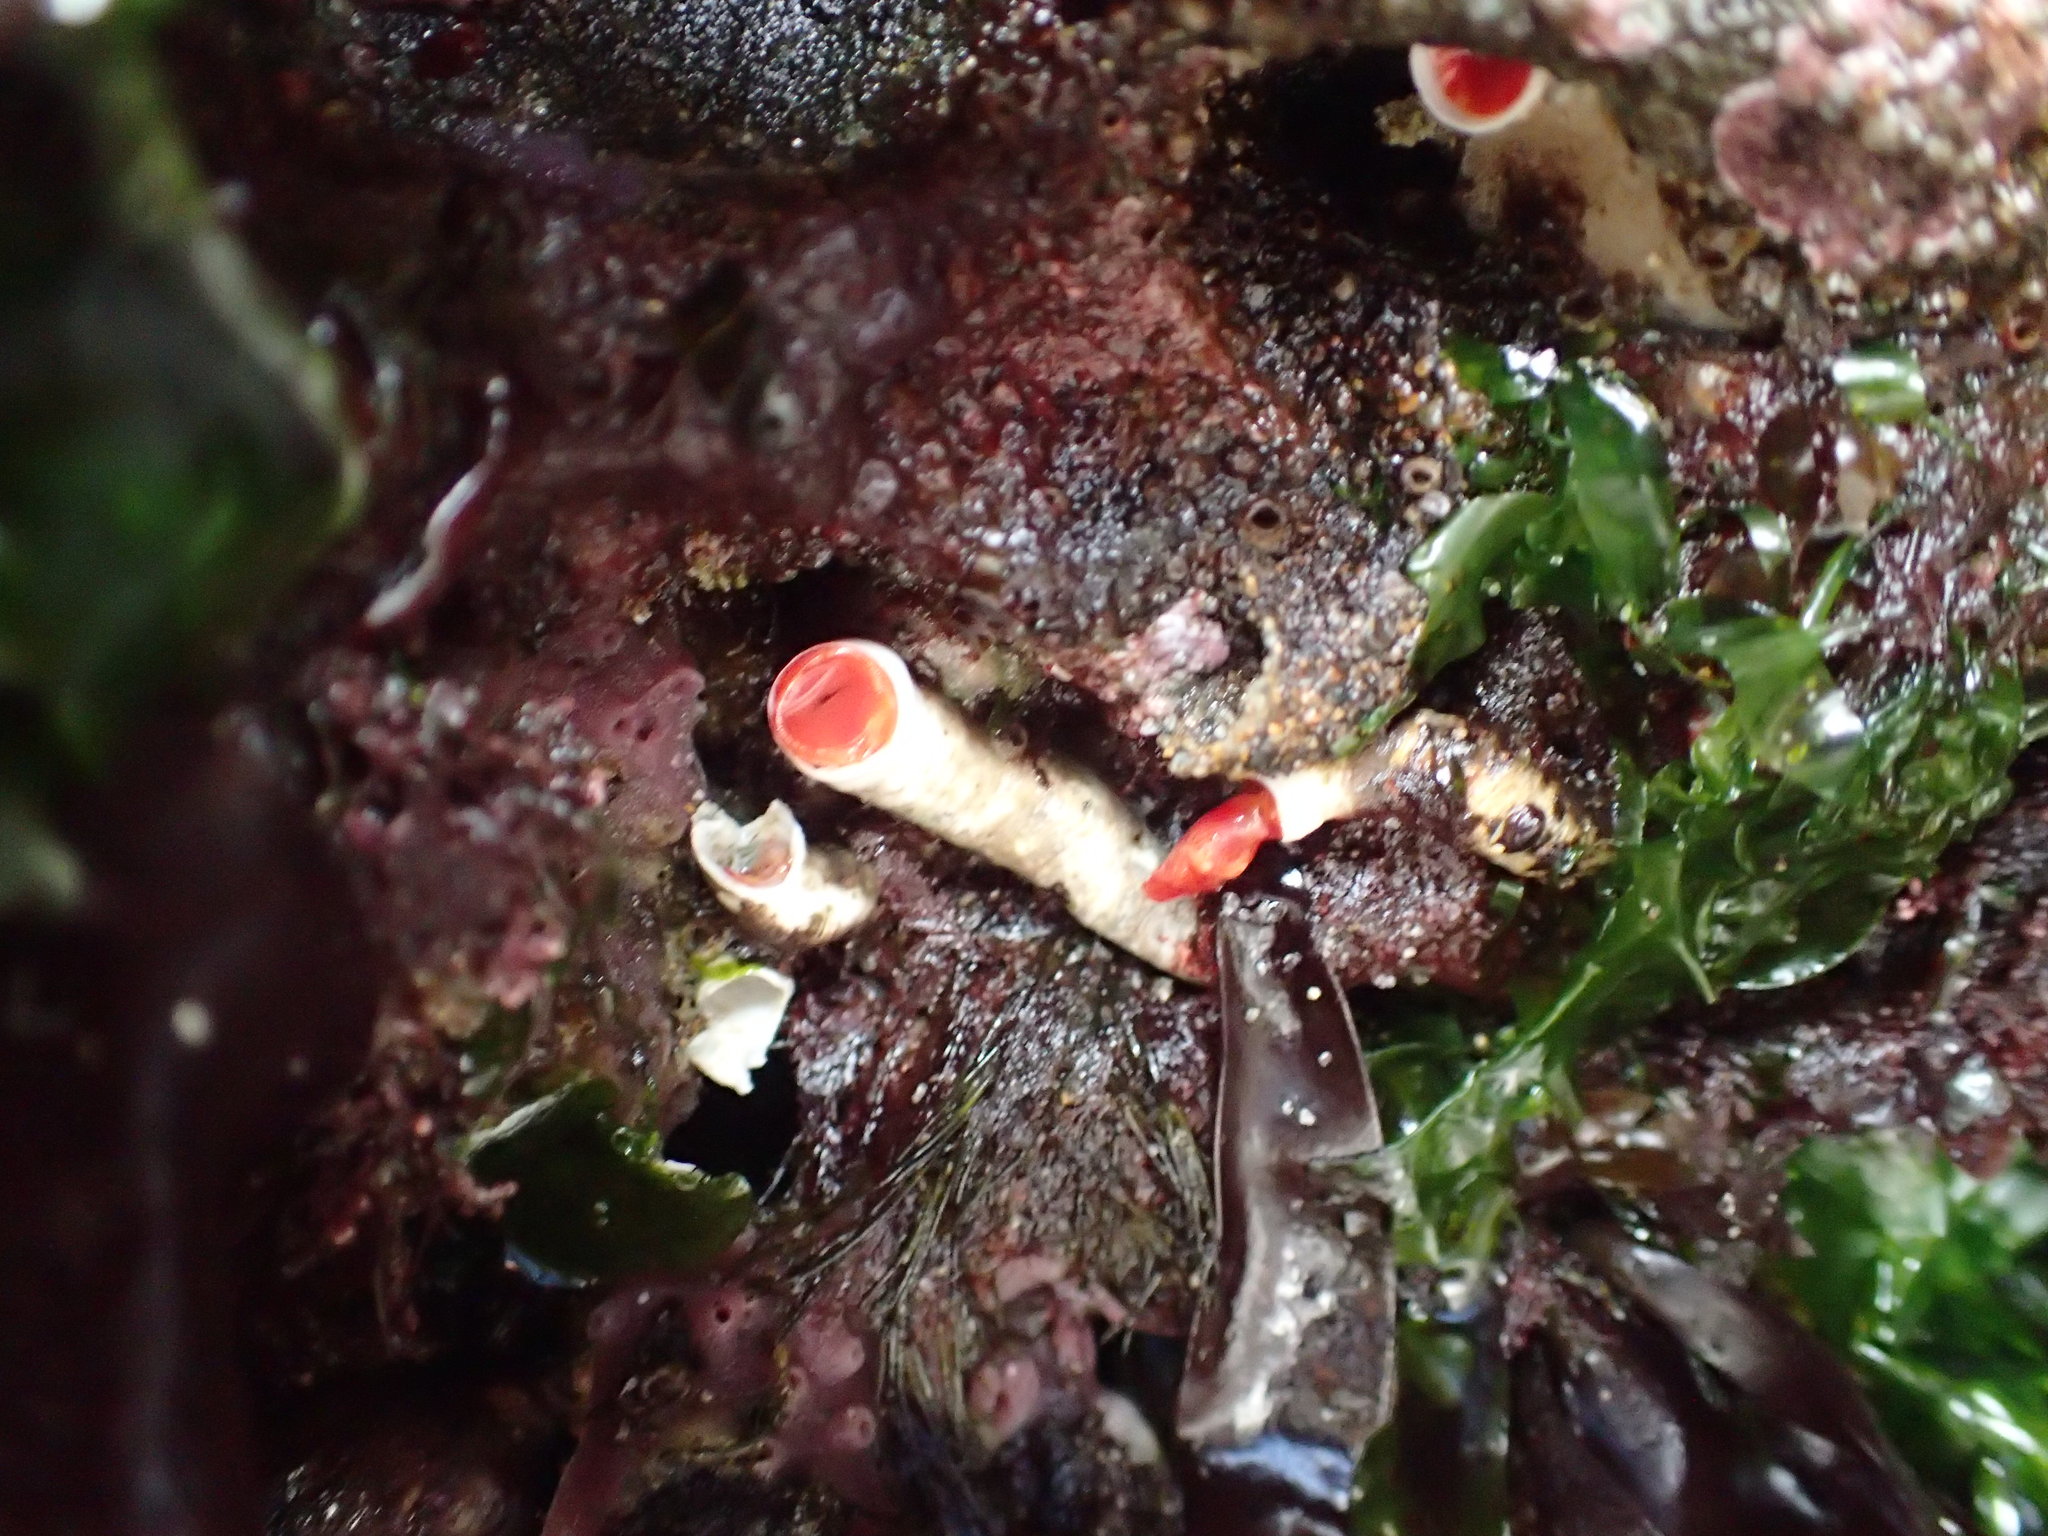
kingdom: Animalia
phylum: Annelida
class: Polychaeta
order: Sabellida
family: Serpulidae
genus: Serpula
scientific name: Serpula columbiana
